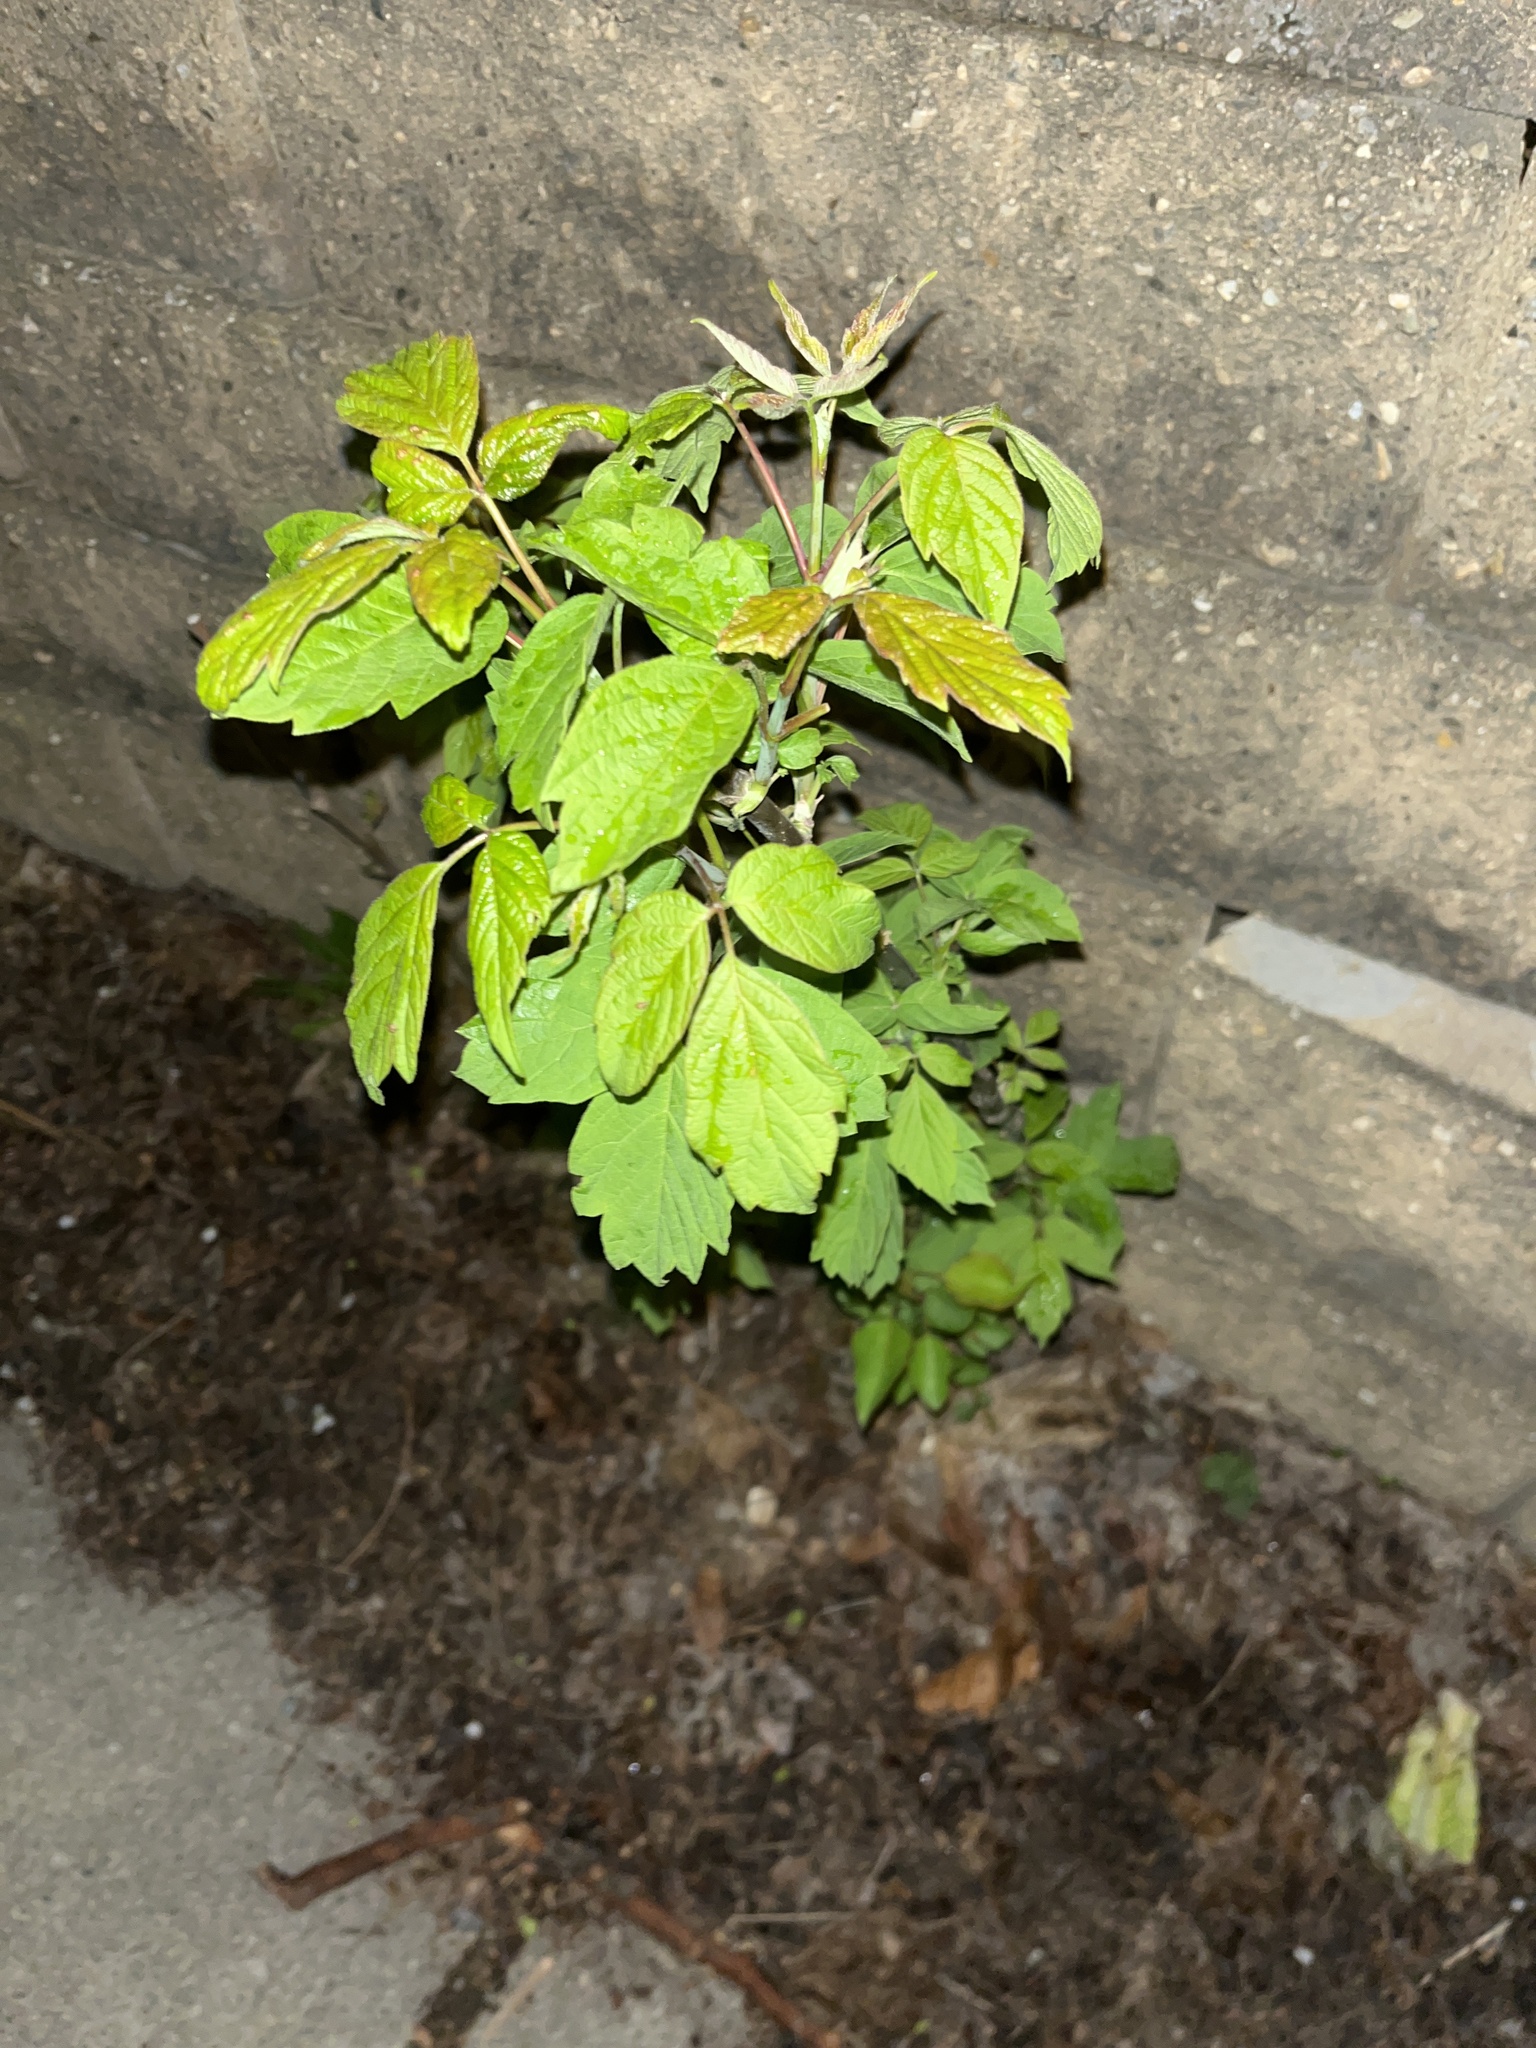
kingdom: Plantae
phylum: Tracheophyta
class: Magnoliopsida
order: Sapindales
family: Sapindaceae
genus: Acer
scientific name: Acer negundo
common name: Ashleaf maple
